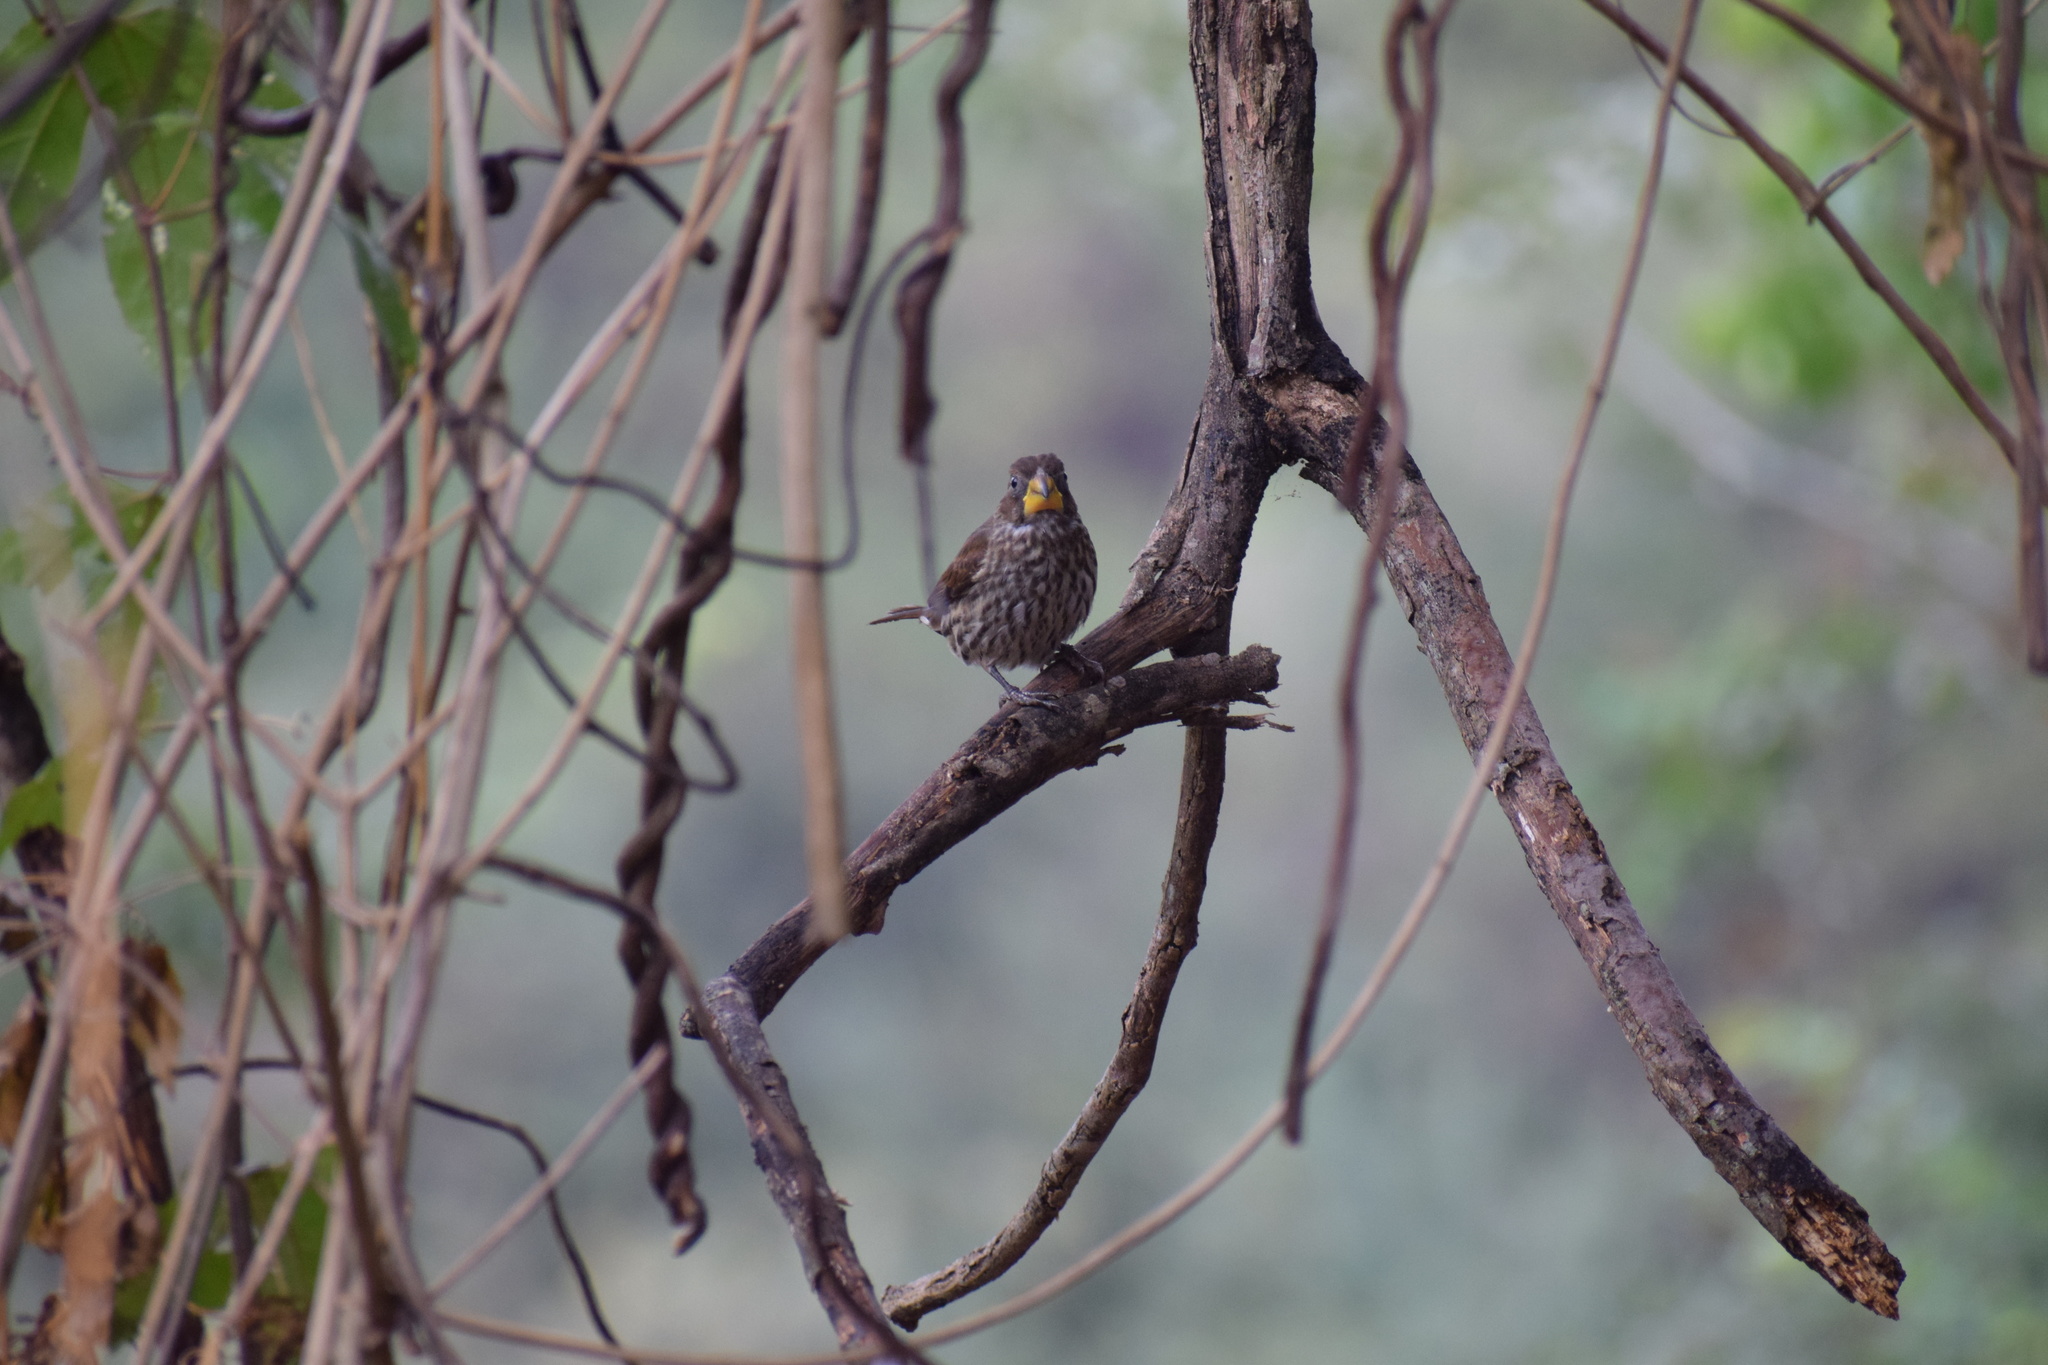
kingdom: Animalia
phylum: Chordata
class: Aves
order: Passeriformes
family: Ploceidae
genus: Amblyospiza
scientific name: Amblyospiza albifrons
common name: Thick-billed weaver
